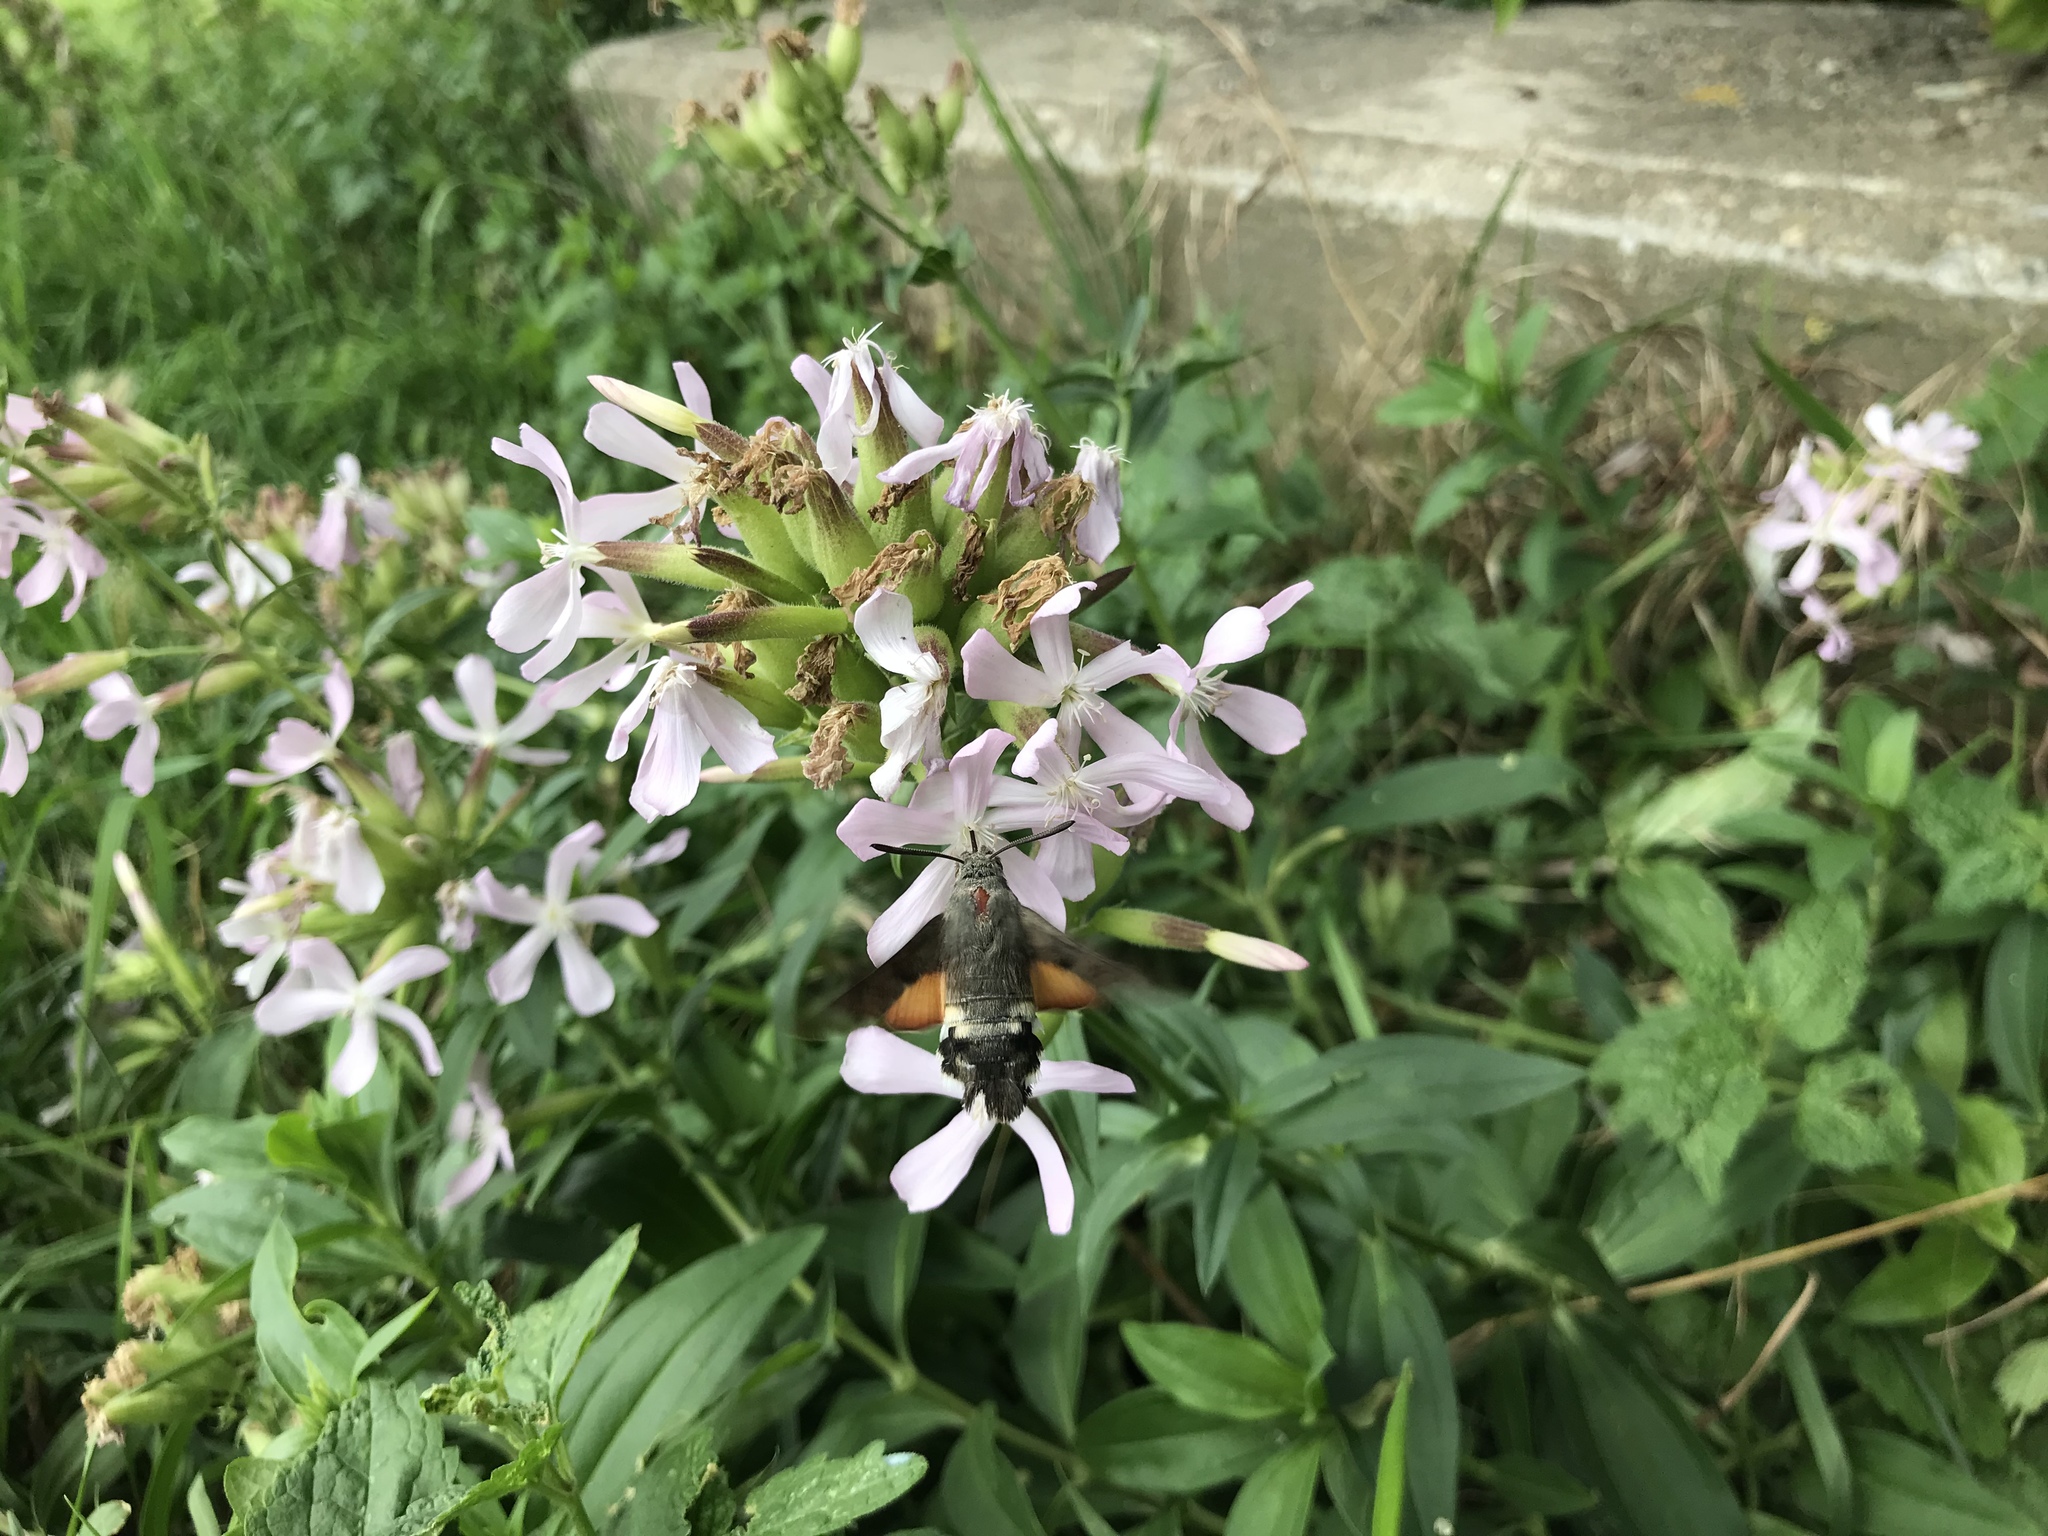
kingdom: Animalia
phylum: Arthropoda
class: Insecta
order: Lepidoptera
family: Sphingidae
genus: Macroglossum
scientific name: Macroglossum stellatarum
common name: Humming-bird hawk-moth
